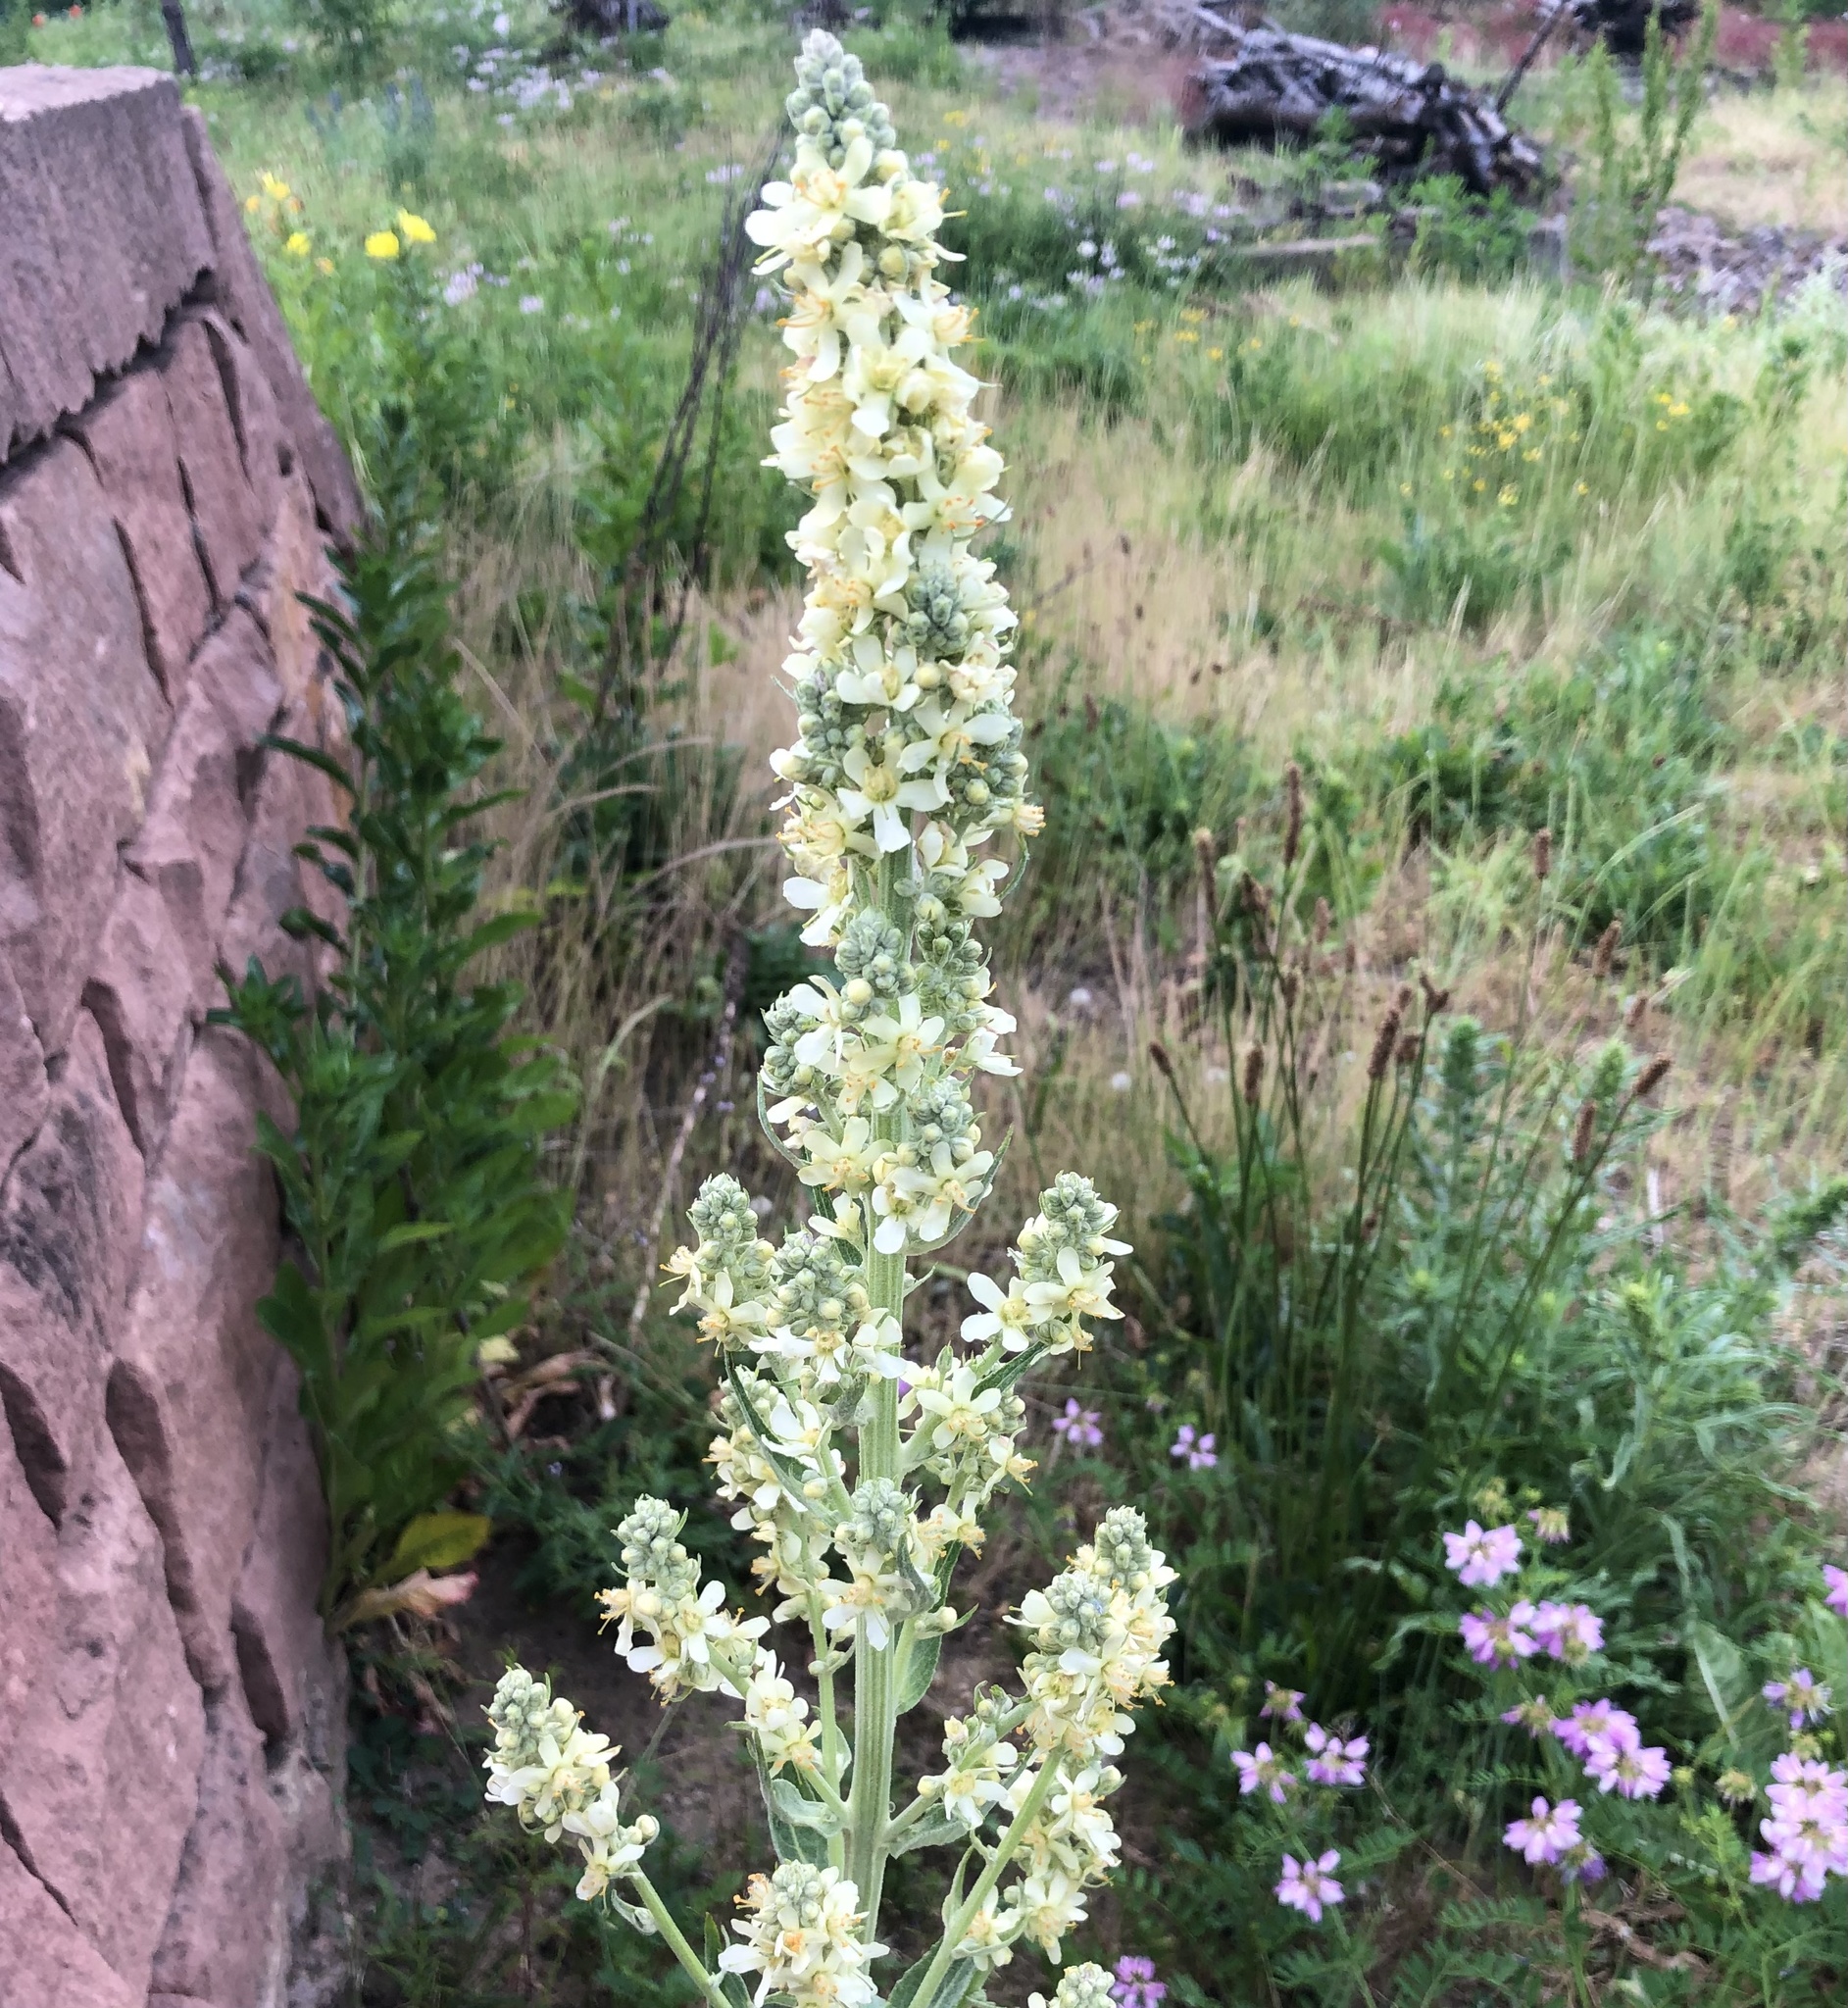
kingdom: Plantae
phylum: Tracheophyta
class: Magnoliopsida
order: Lamiales
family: Scrophulariaceae
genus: Verbascum
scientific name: Verbascum lychnitis
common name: White mullein
